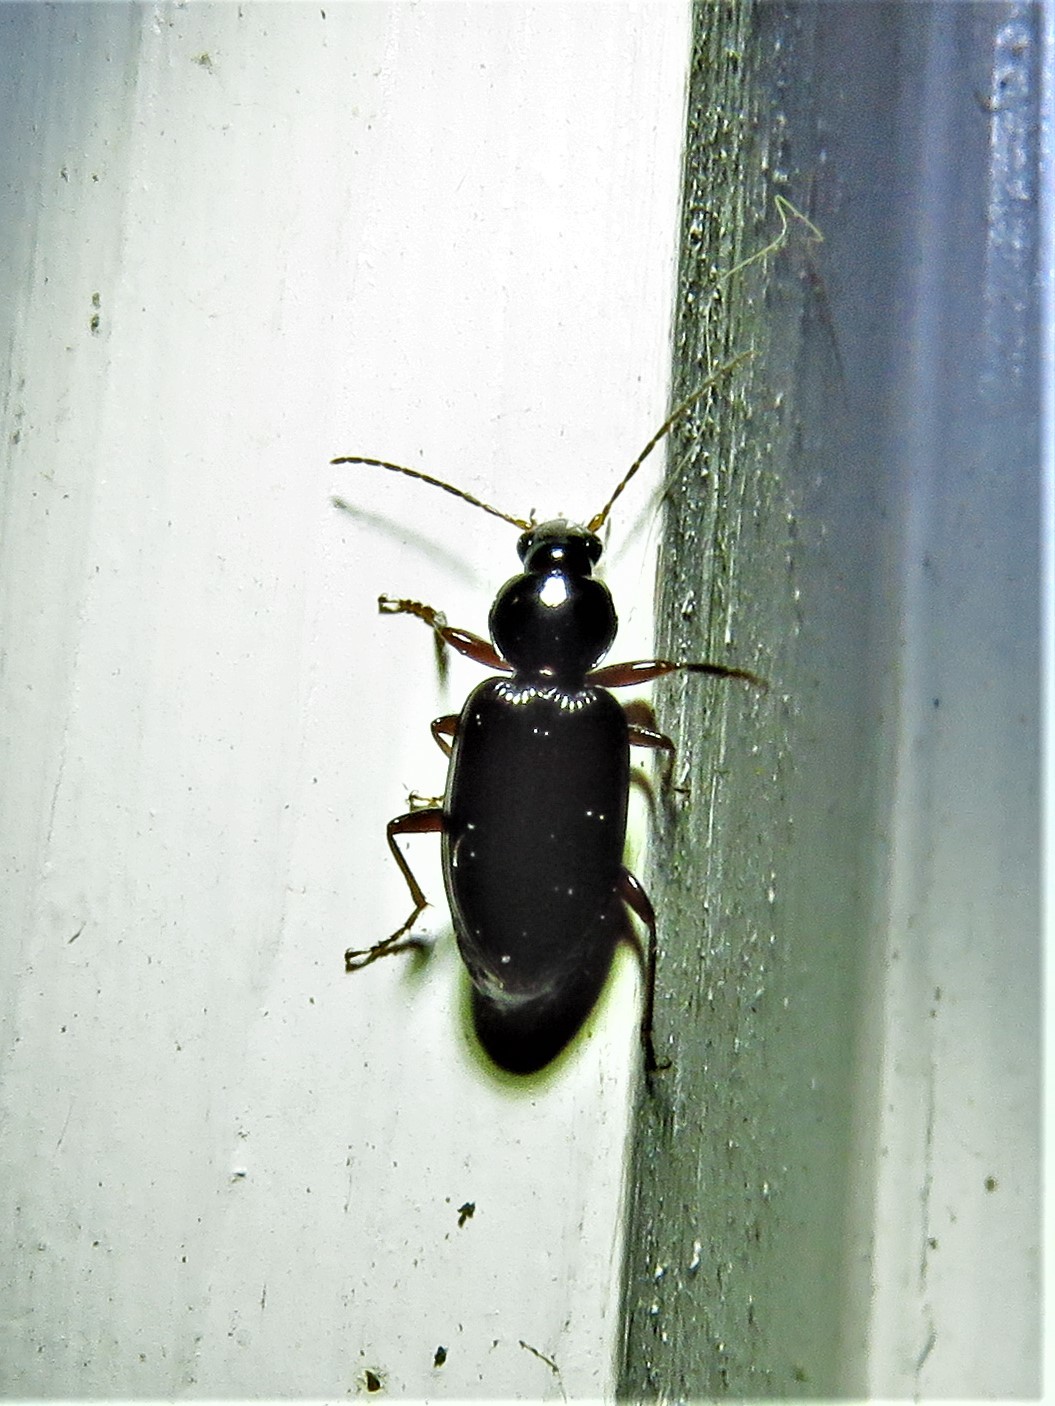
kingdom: Animalia
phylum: Arthropoda
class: Insecta
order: Coleoptera
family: Carabidae
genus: Agonum
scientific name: Agonum punctiforme
